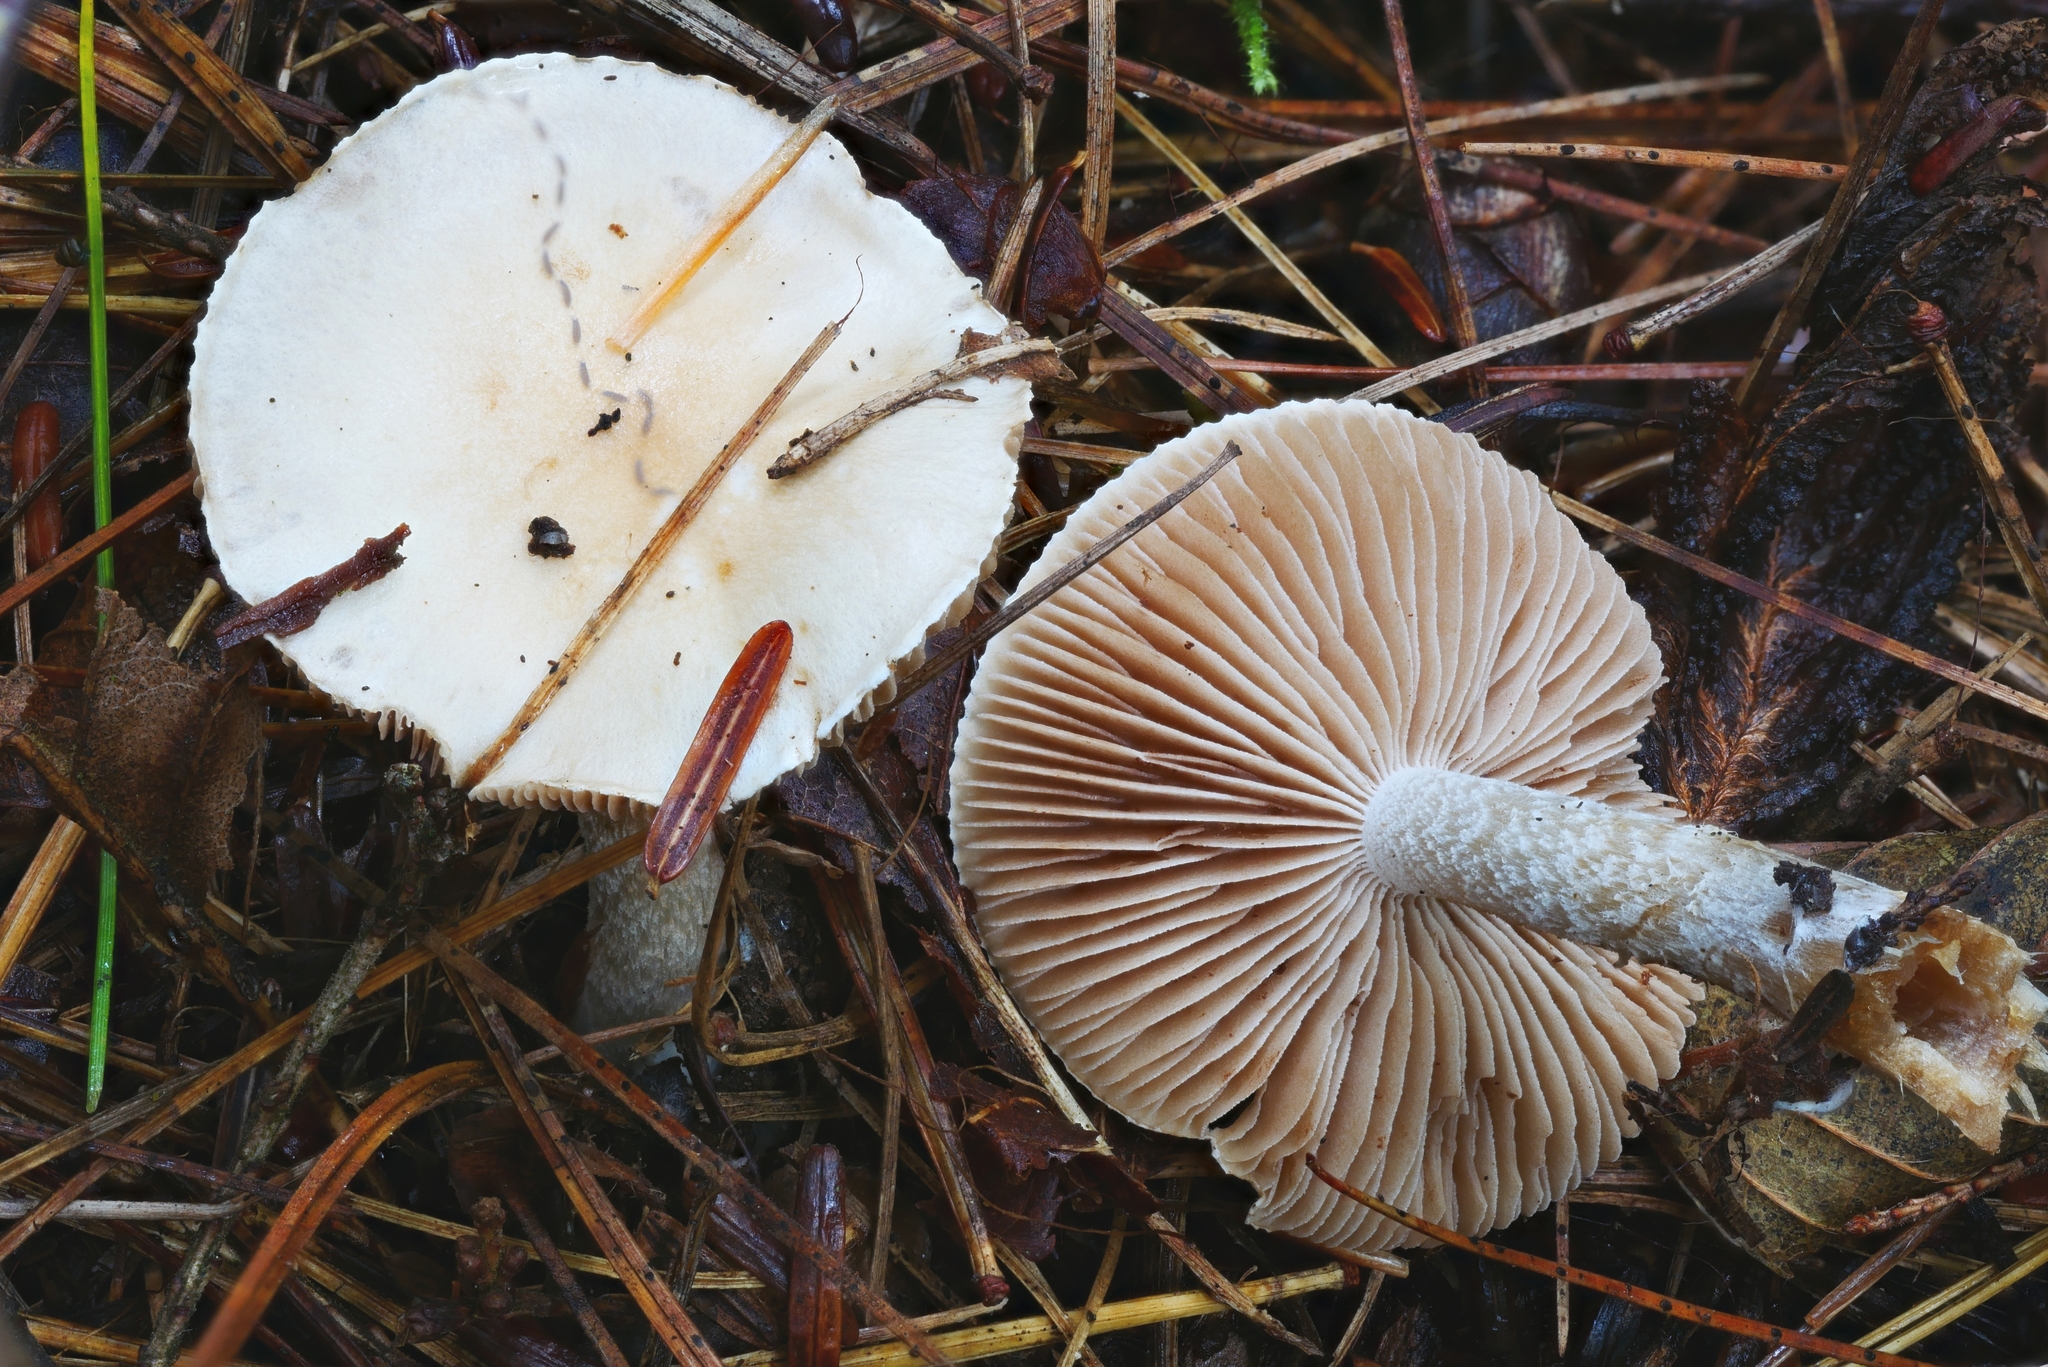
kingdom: Fungi
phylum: Basidiomycota
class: Agaricomycetes
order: Agaricales
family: Hymenogastraceae
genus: Hebeloma
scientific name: Hebeloma ingratum
